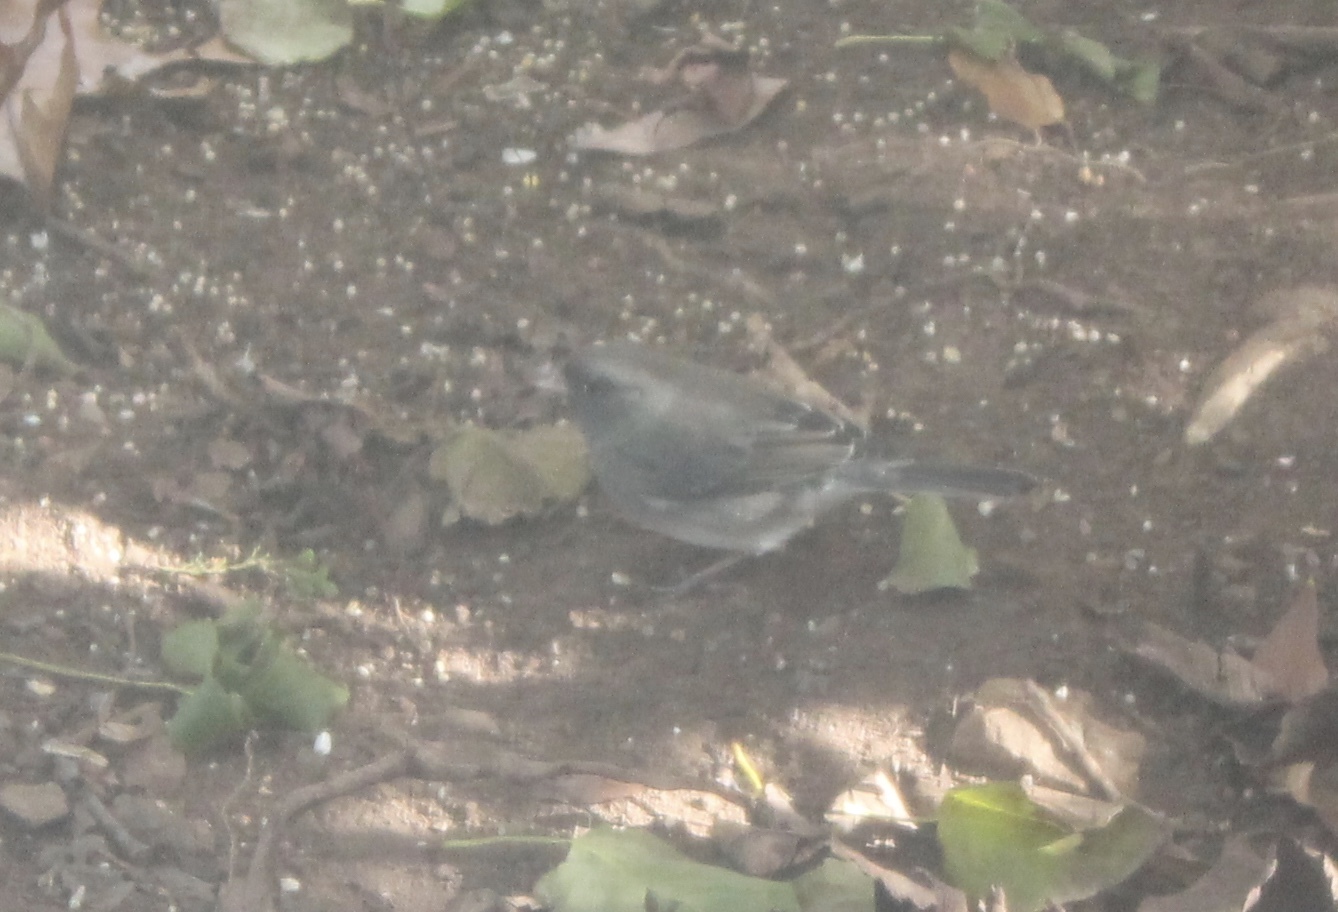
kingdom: Animalia
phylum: Chordata
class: Aves
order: Passeriformes
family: Passerellidae
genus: Junco
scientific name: Junco hyemalis
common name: Dark-eyed junco
